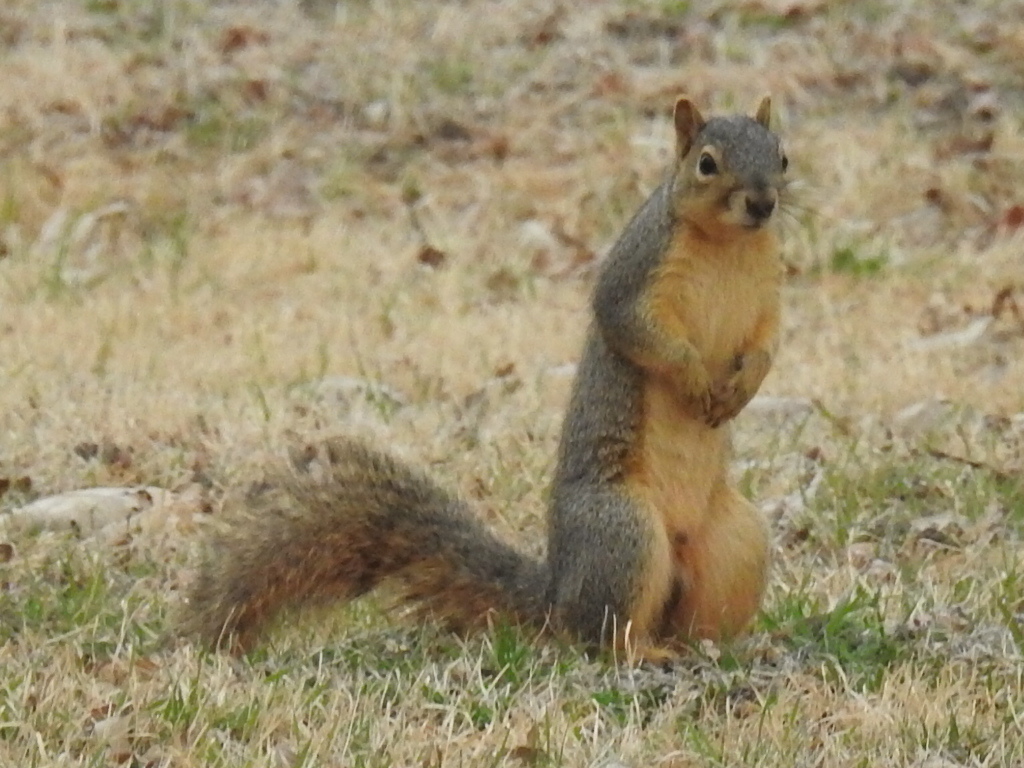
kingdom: Animalia
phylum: Chordata
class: Mammalia
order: Rodentia
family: Sciuridae
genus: Sciurus
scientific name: Sciurus niger
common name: Fox squirrel
